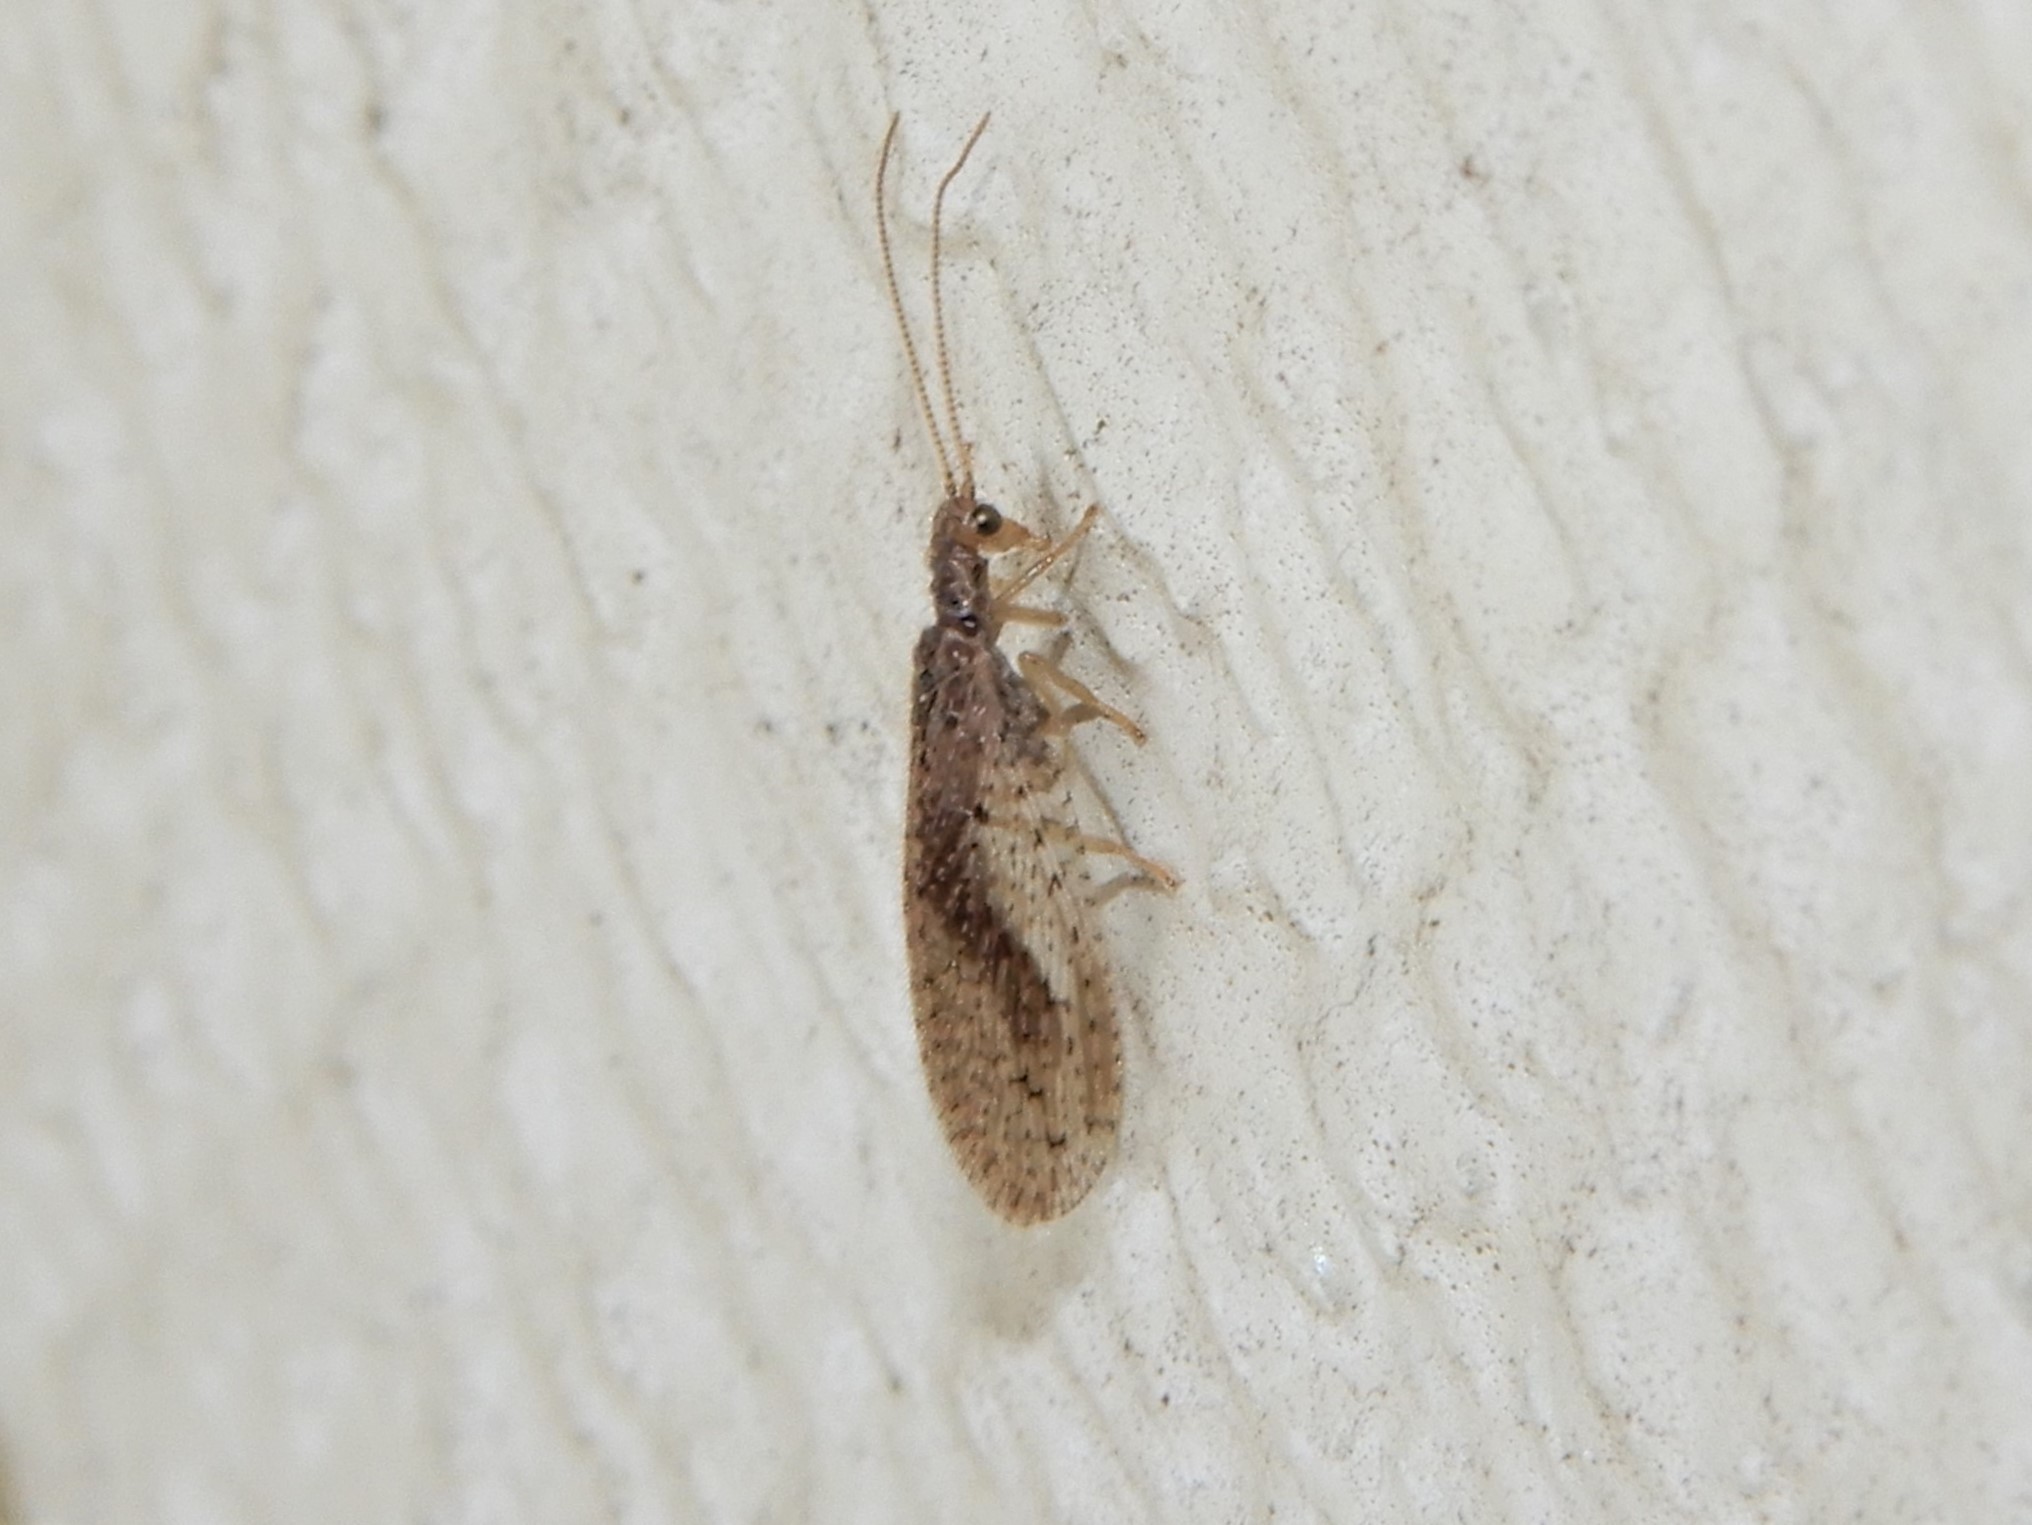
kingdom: Animalia
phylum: Arthropoda
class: Insecta
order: Neuroptera
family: Hemerobiidae
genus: Micromus
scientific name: Micromus tasmaniae
